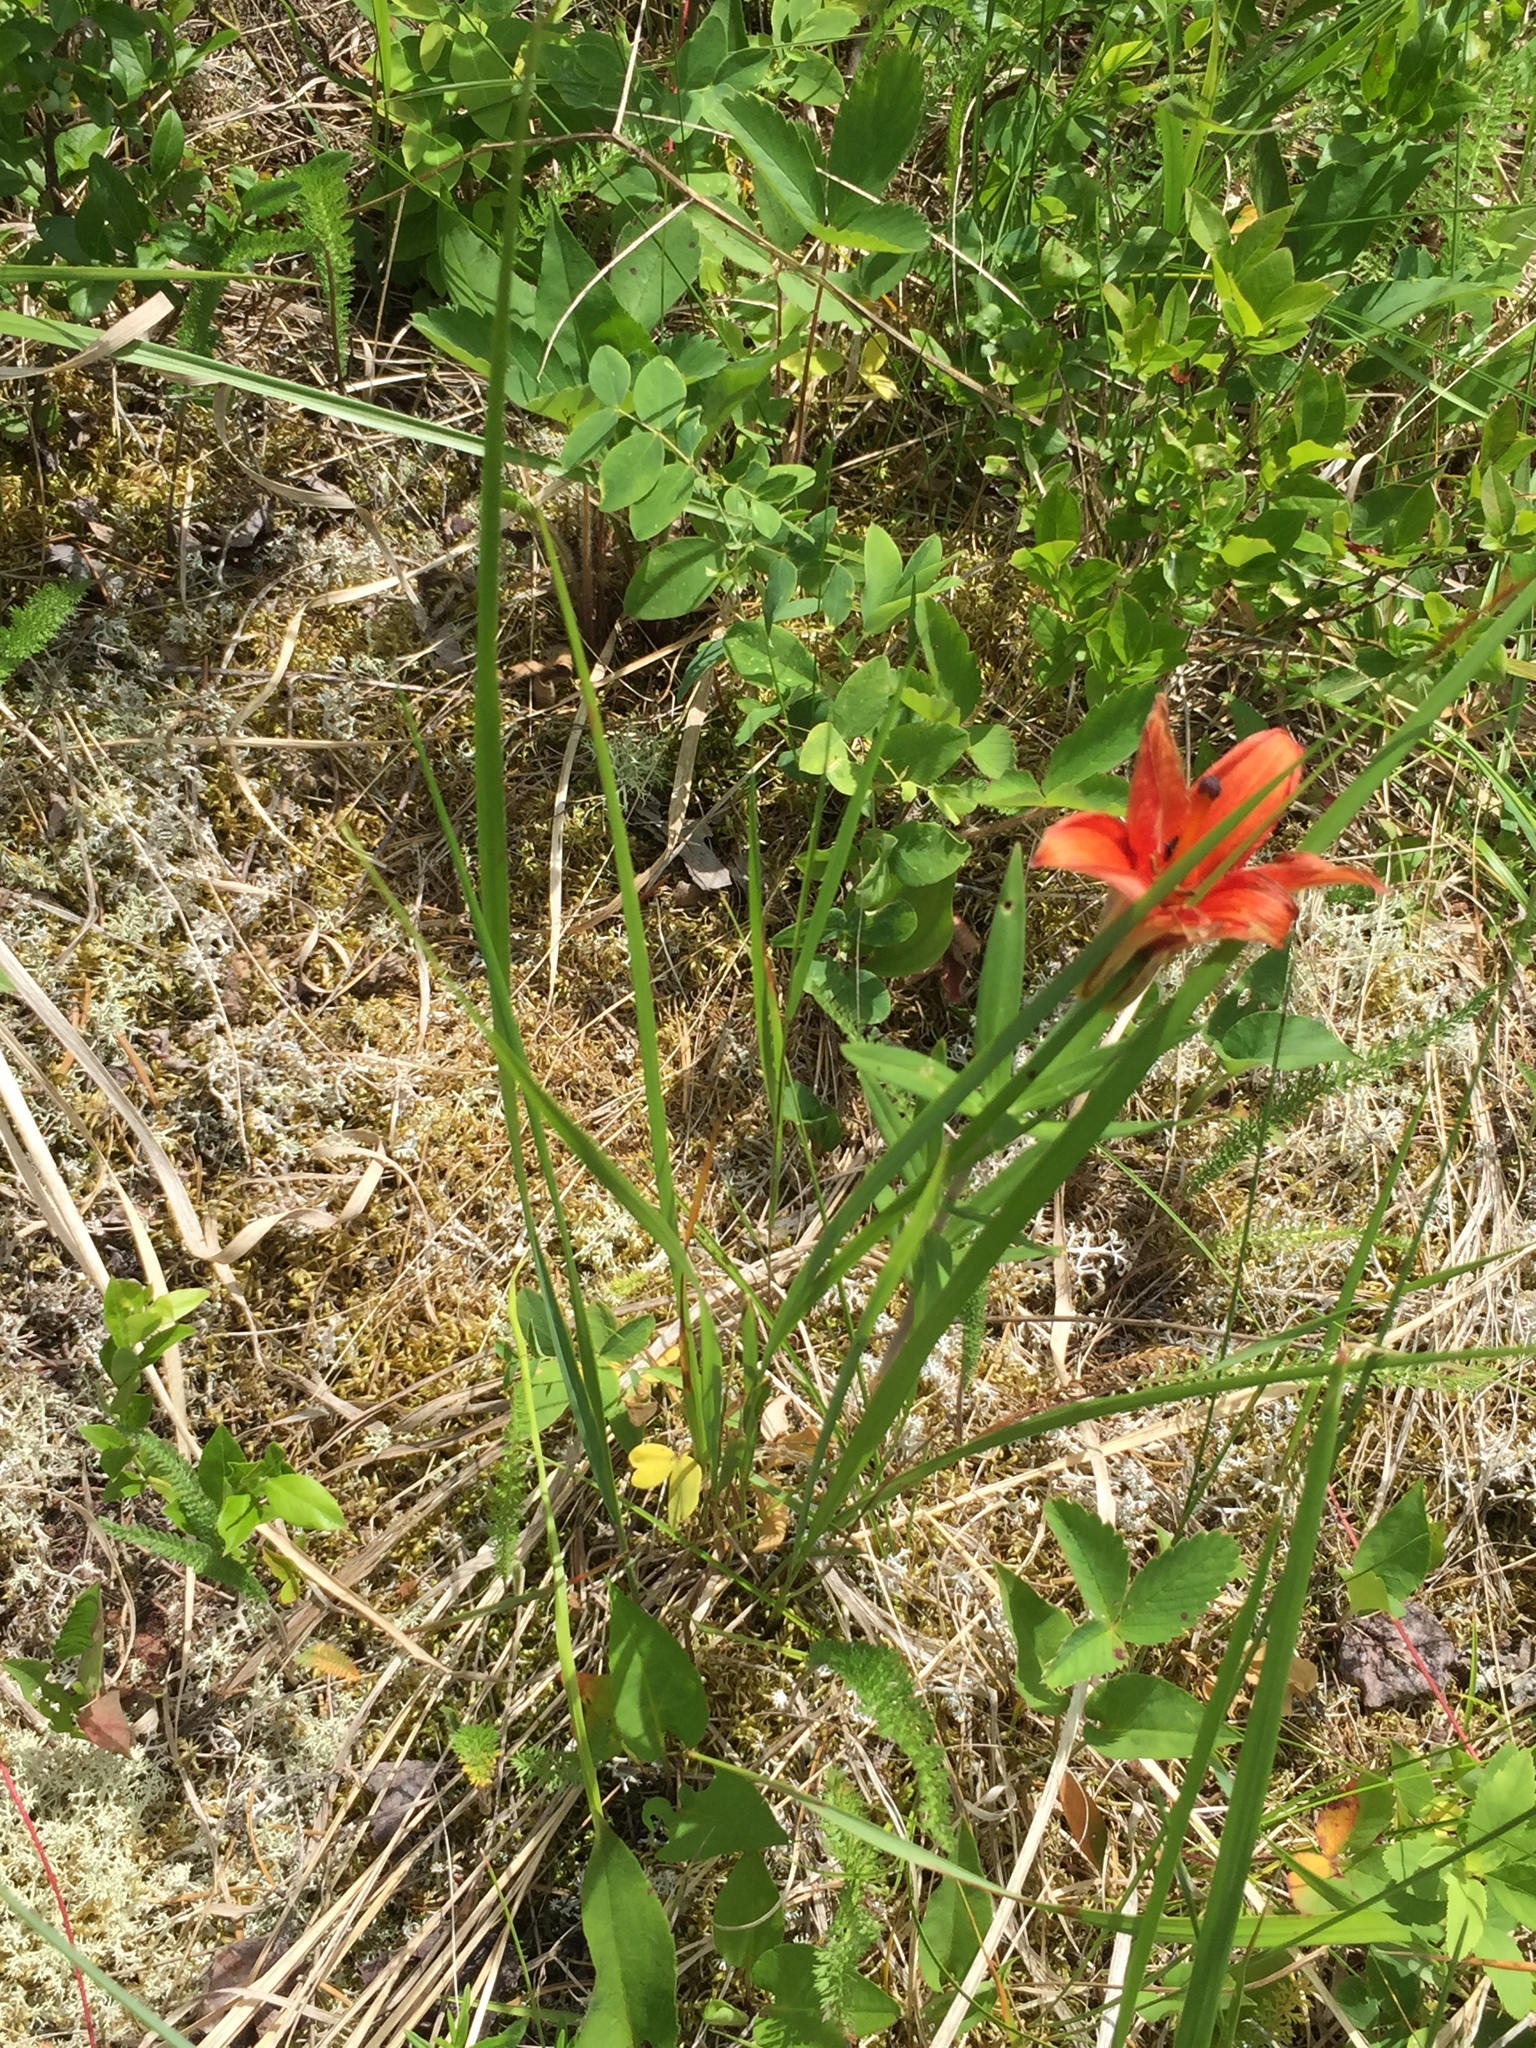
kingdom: Plantae
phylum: Tracheophyta
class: Liliopsida
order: Liliales
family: Liliaceae
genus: Lilium
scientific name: Lilium philadelphicum
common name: Red lily
